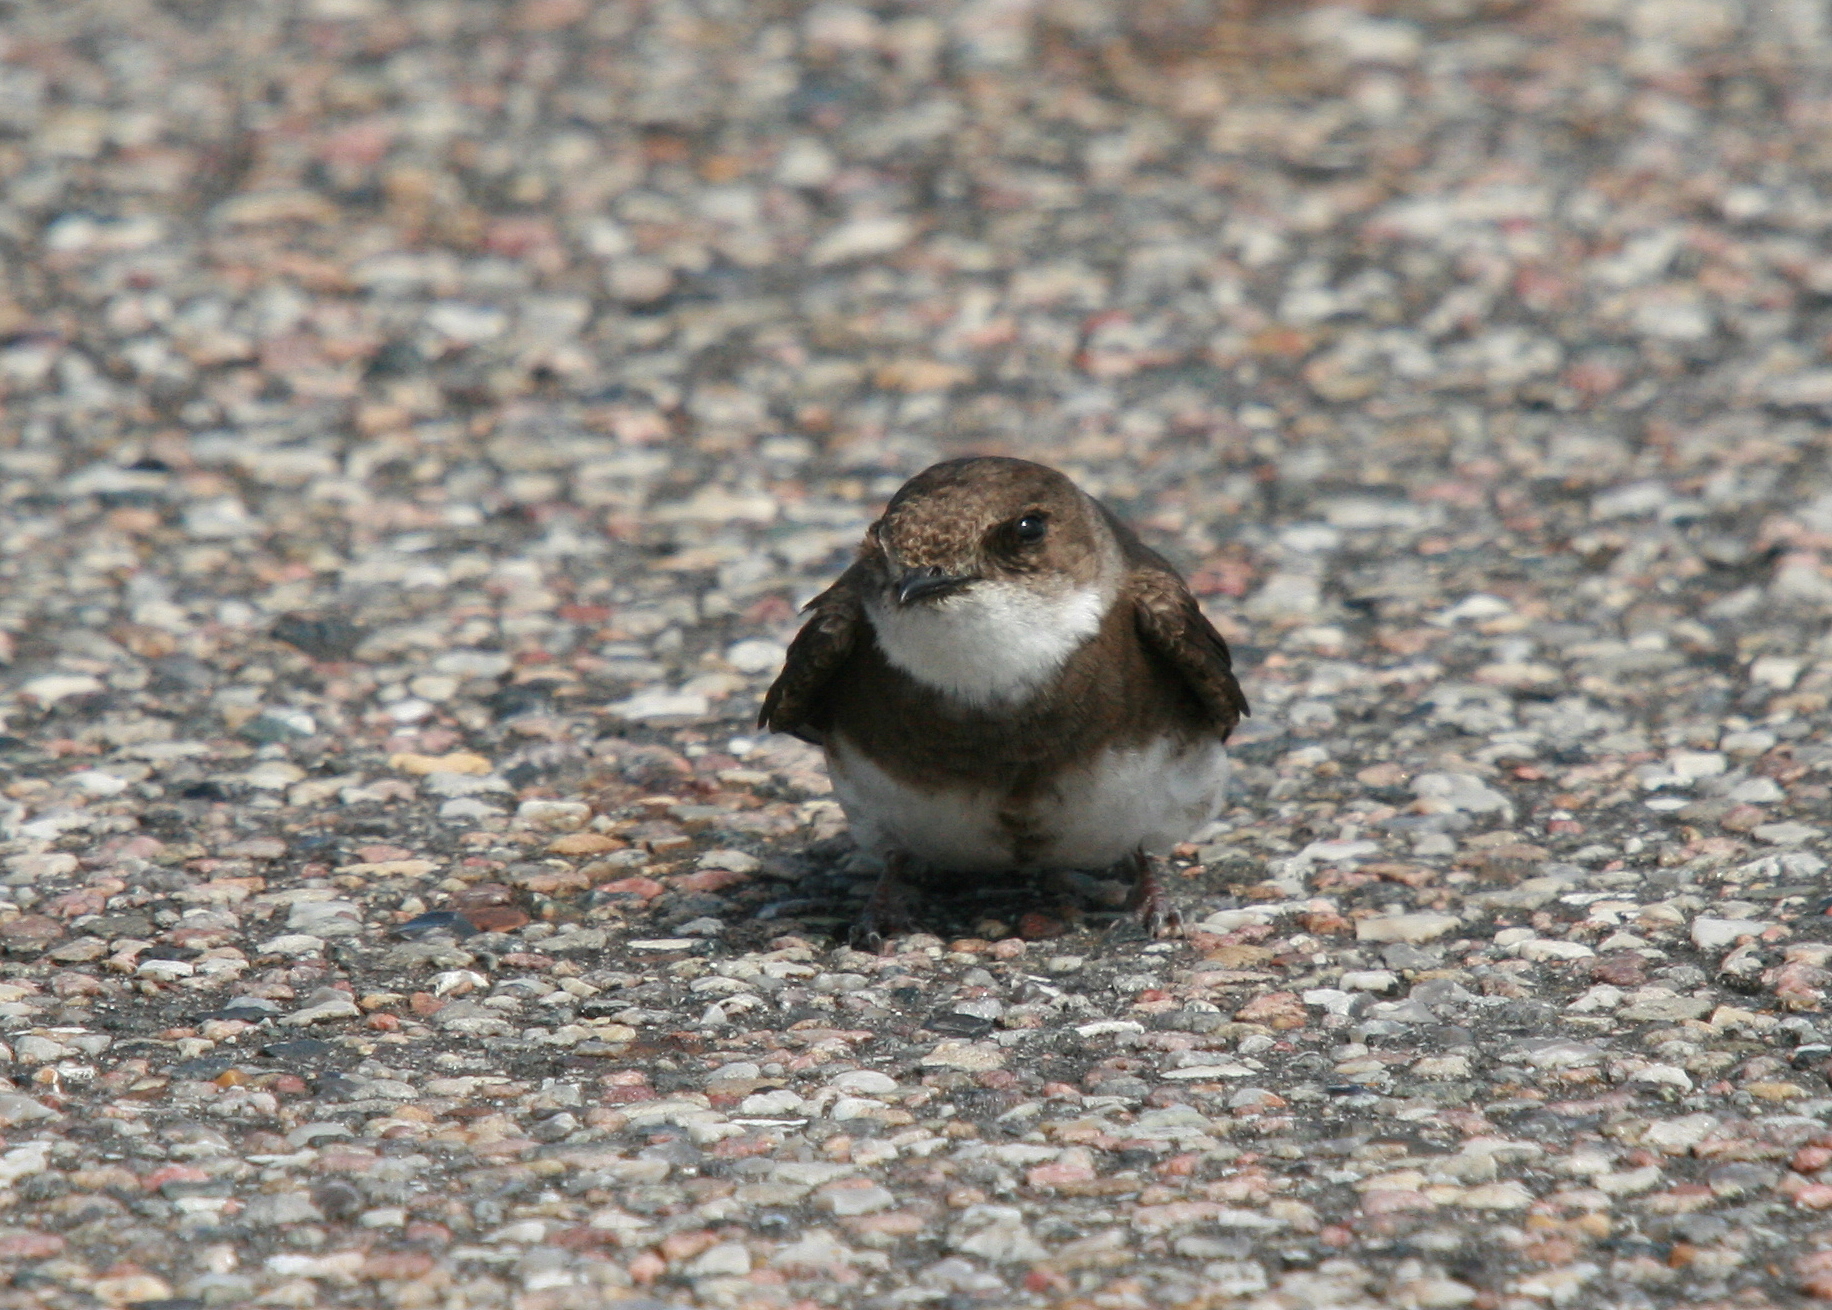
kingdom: Animalia
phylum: Chordata
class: Aves
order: Passeriformes
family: Hirundinidae
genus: Riparia
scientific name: Riparia riparia
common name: Sand martin
